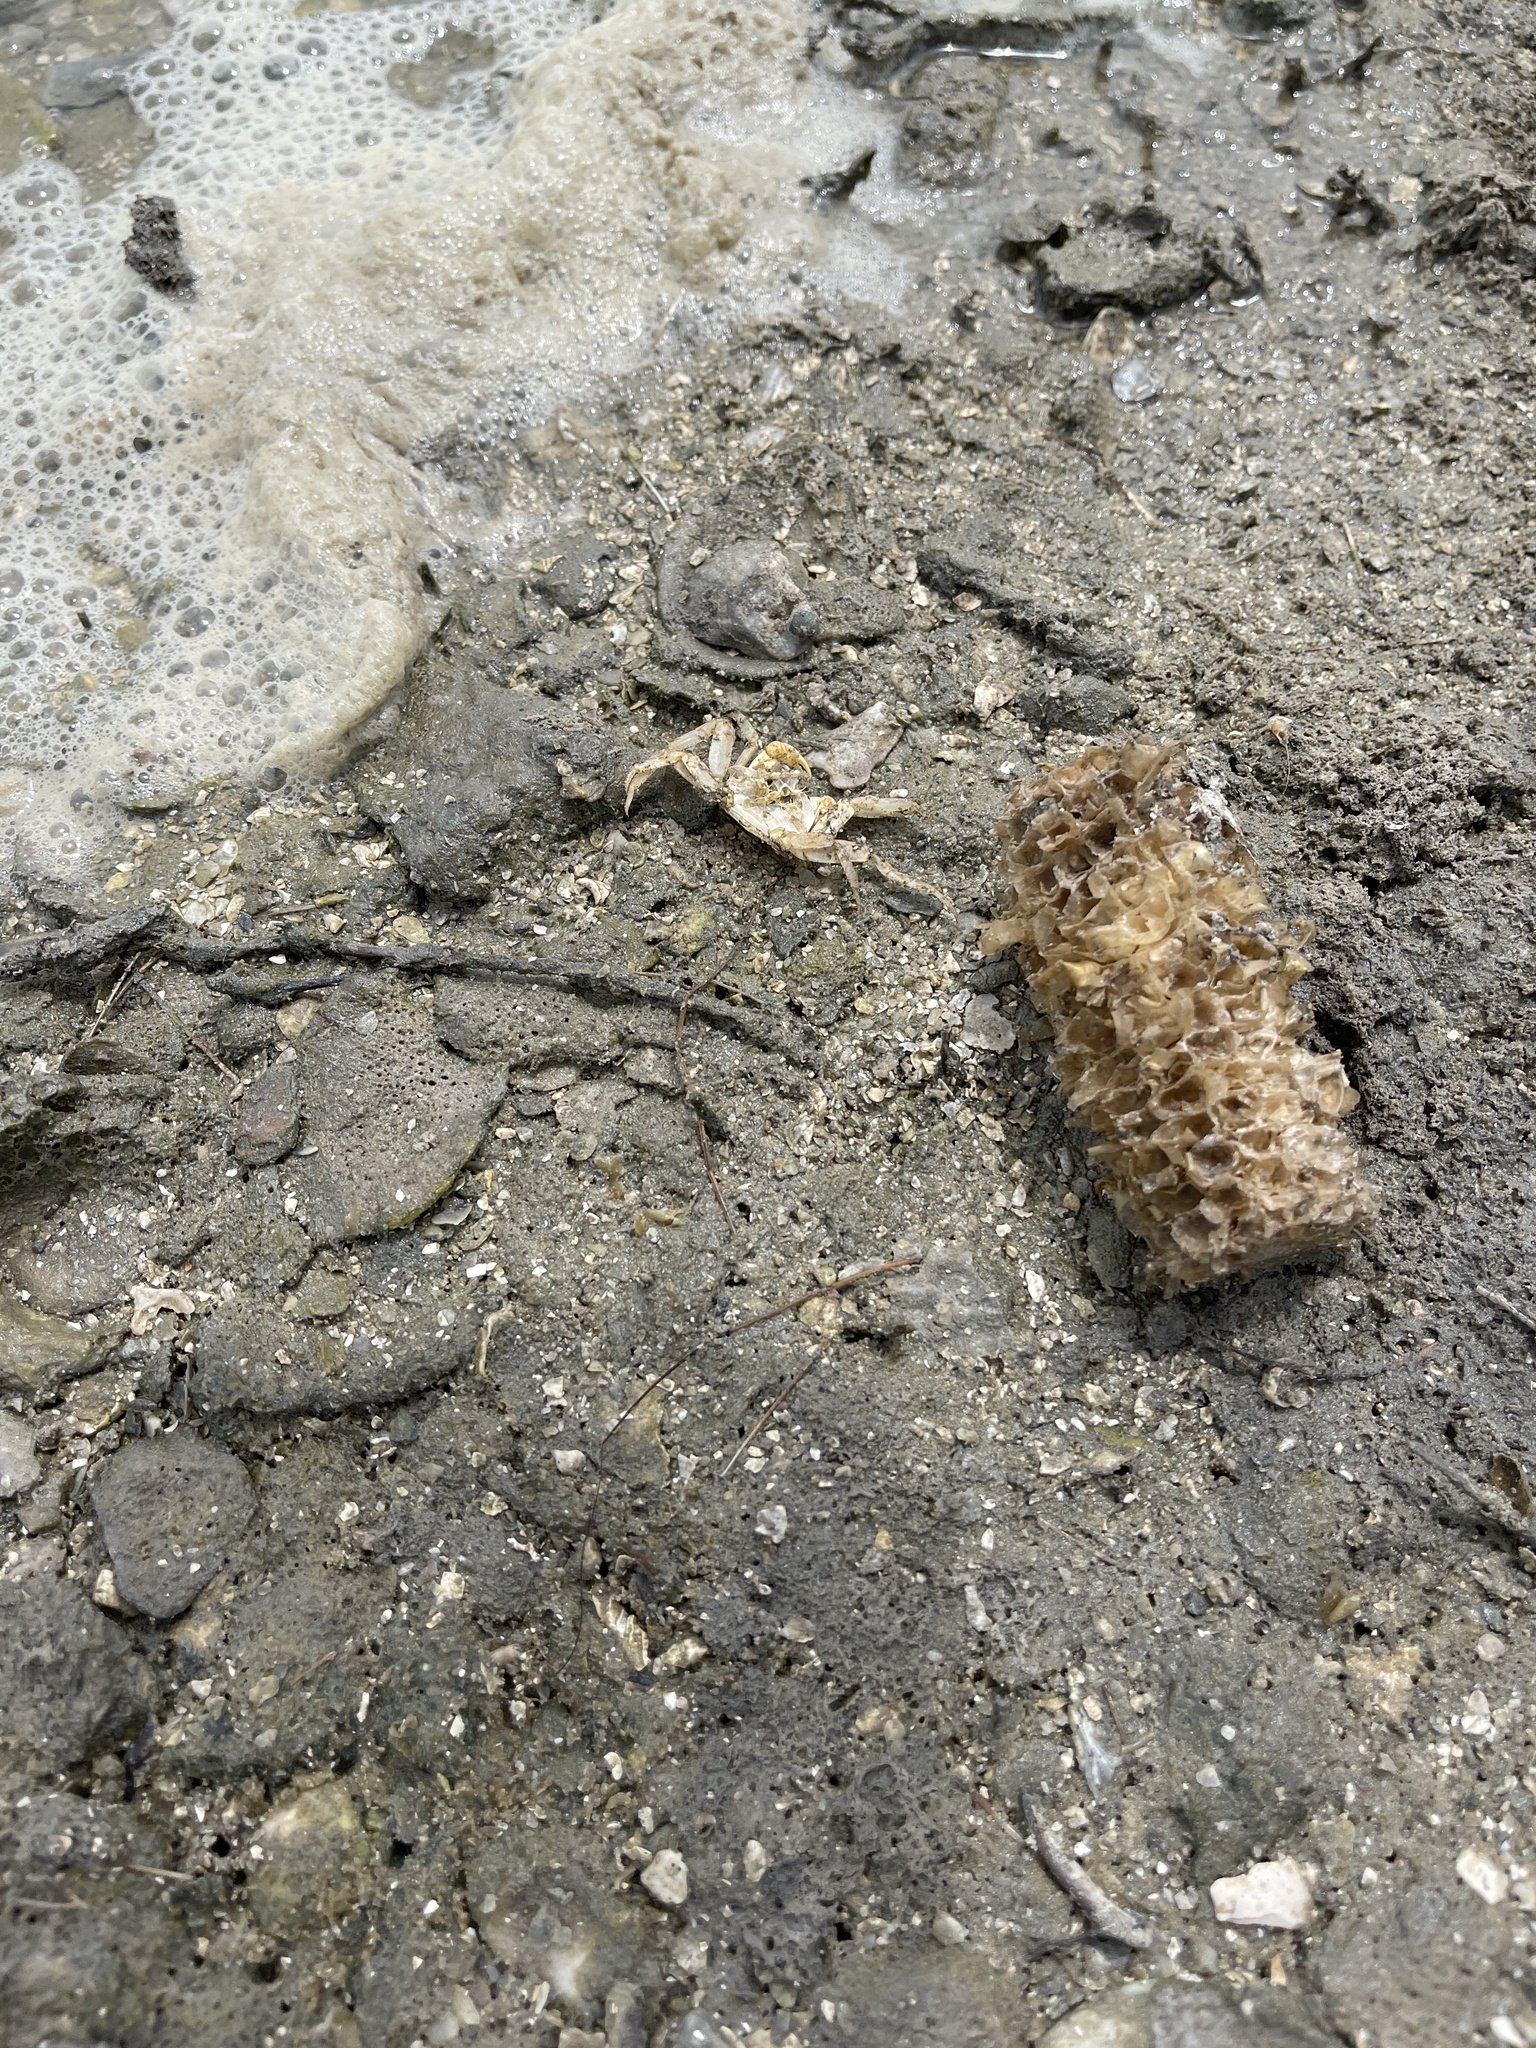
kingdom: Animalia
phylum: Arthropoda
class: Malacostraca
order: Decapoda
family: Ocypodidae
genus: Ocypode
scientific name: Ocypode quadrata
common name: Ghost crab
